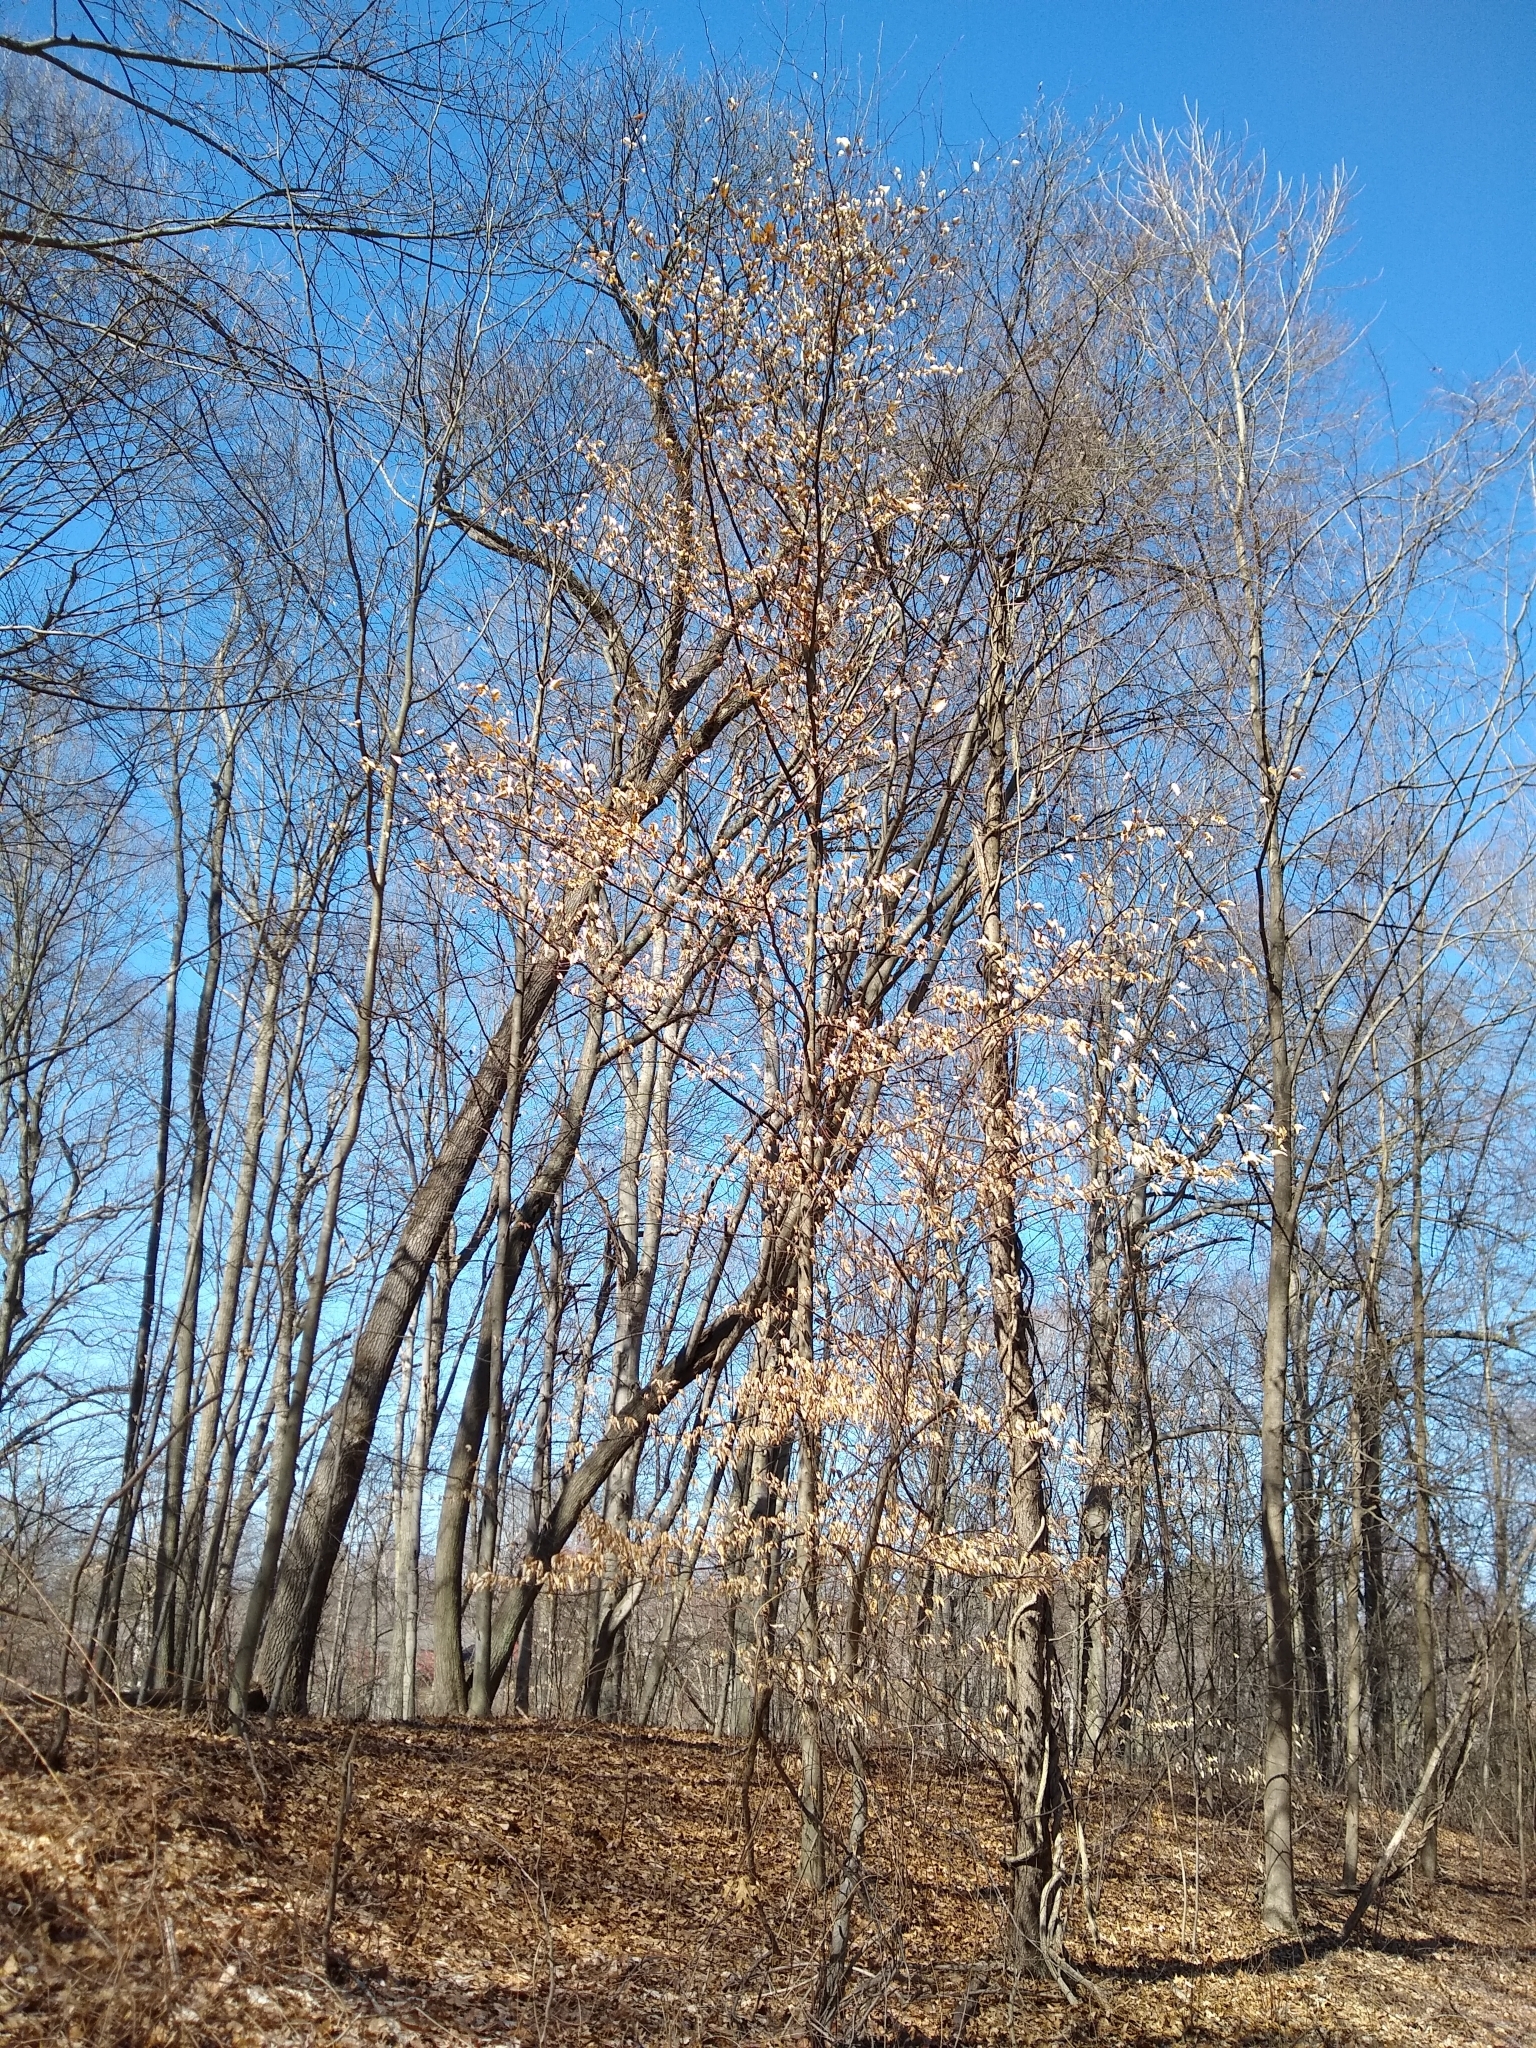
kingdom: Plantae
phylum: Tracheophyta
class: Magnoliopsida
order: Fagales
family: Fagaceae
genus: Fagus
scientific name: Fagus grandifolia
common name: American beech
